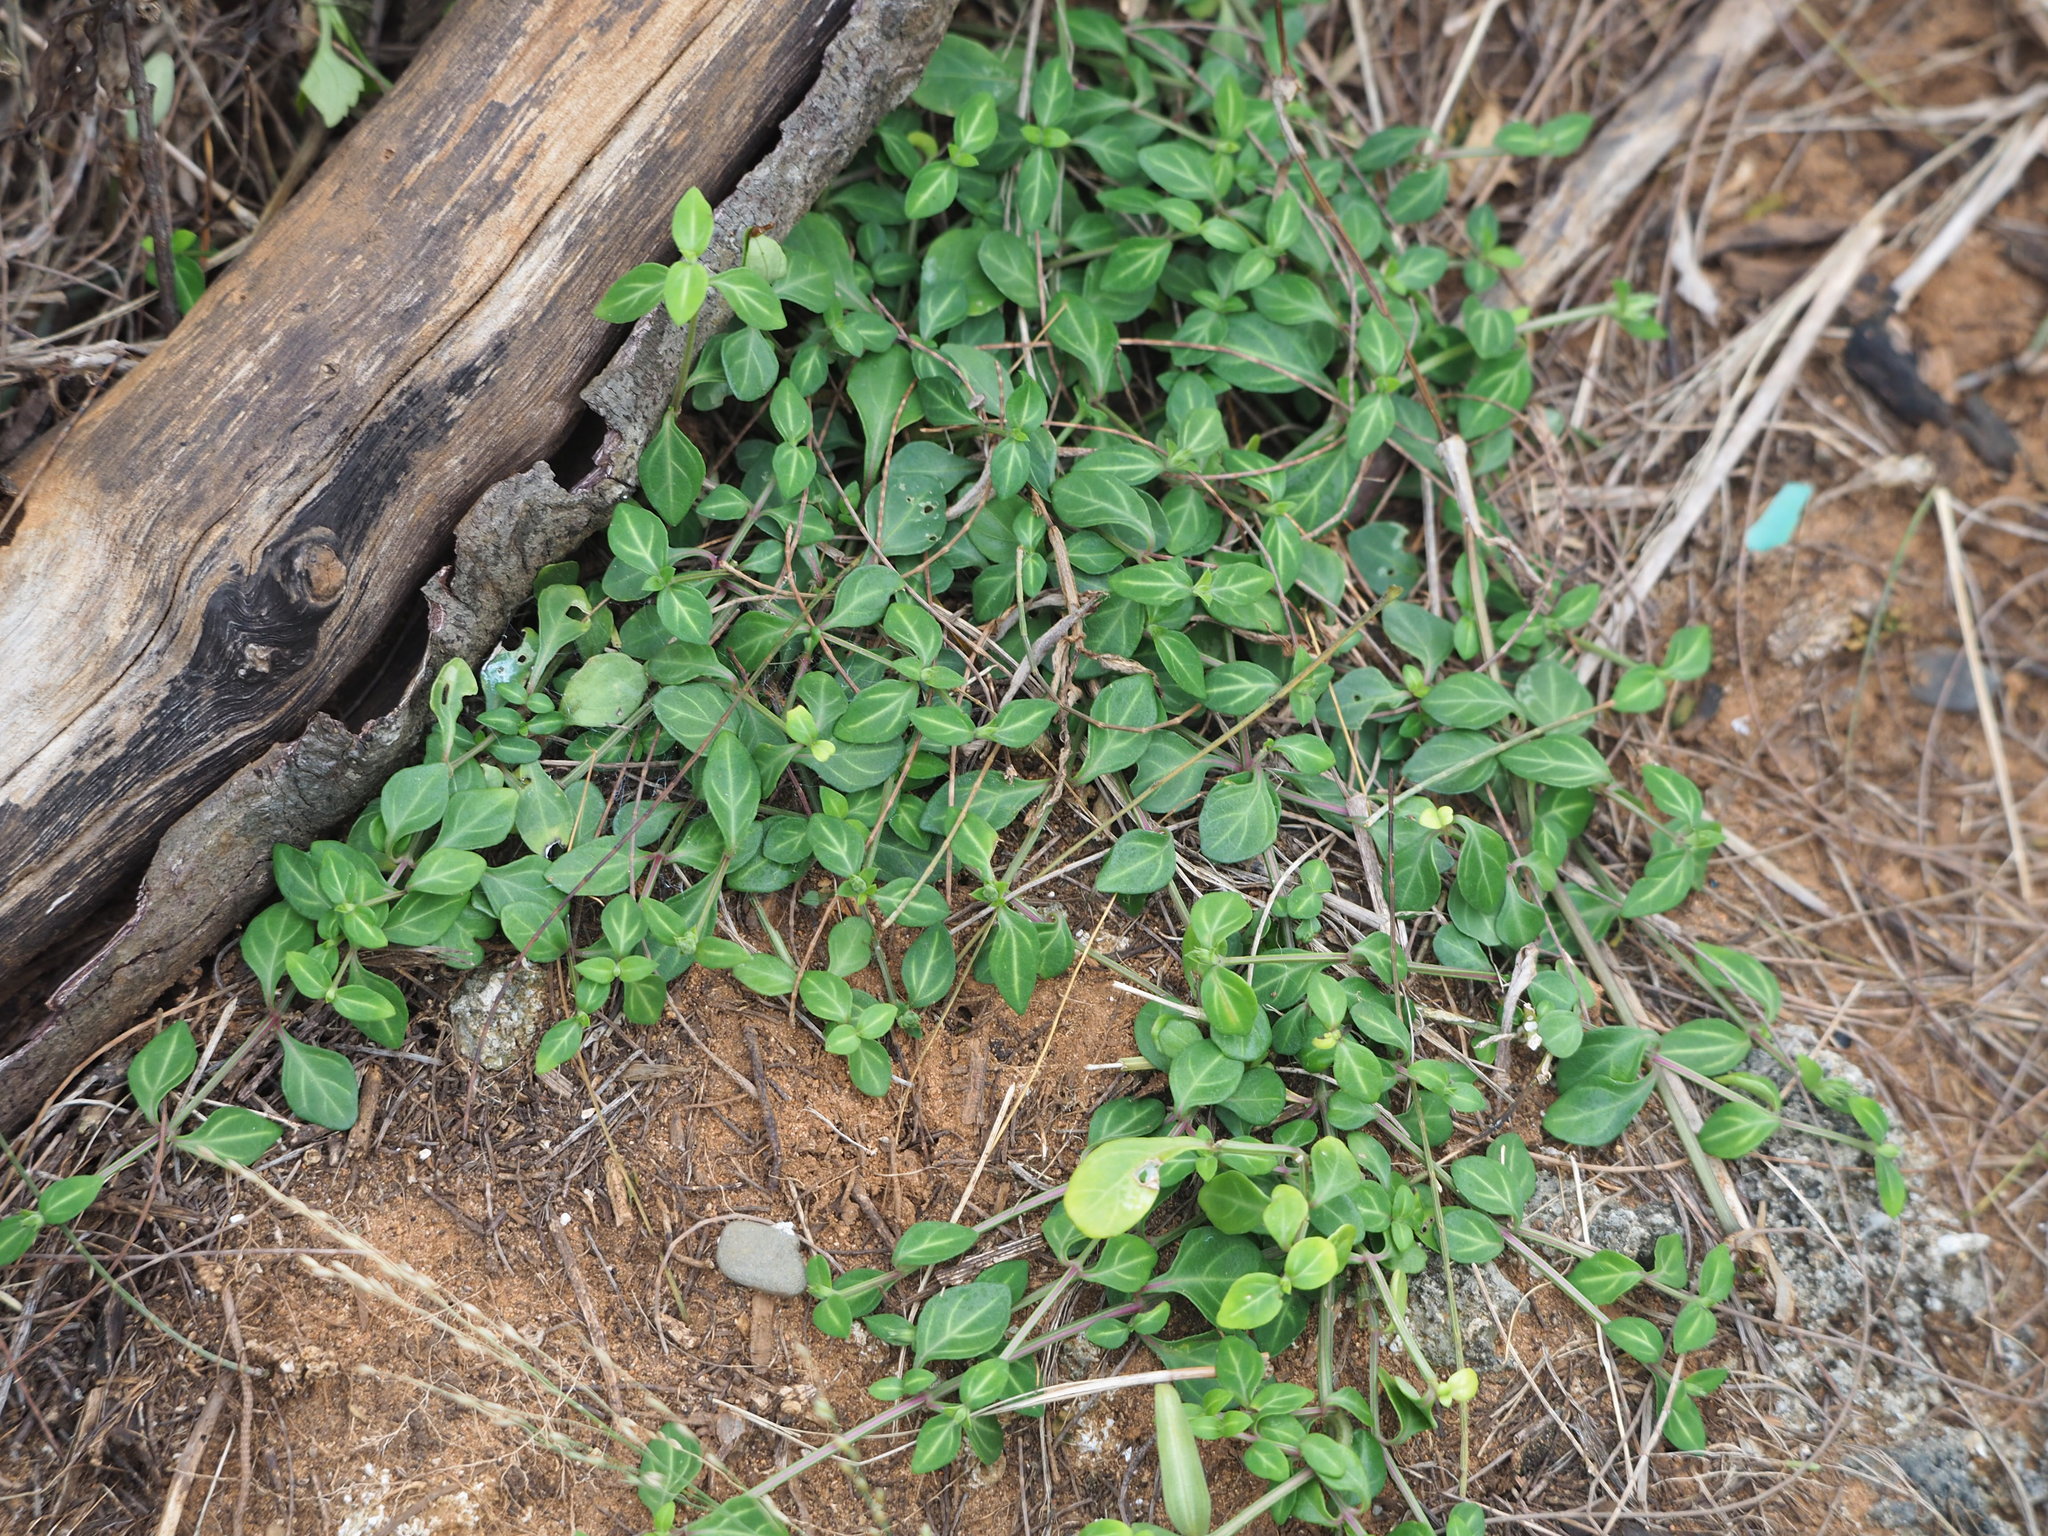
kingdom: Plantae
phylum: Tracheophyta
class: Magnoliopsida
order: Lamiales
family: Acanthaceae
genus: Lepidagathis
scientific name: Lepidagathis inaequalis
